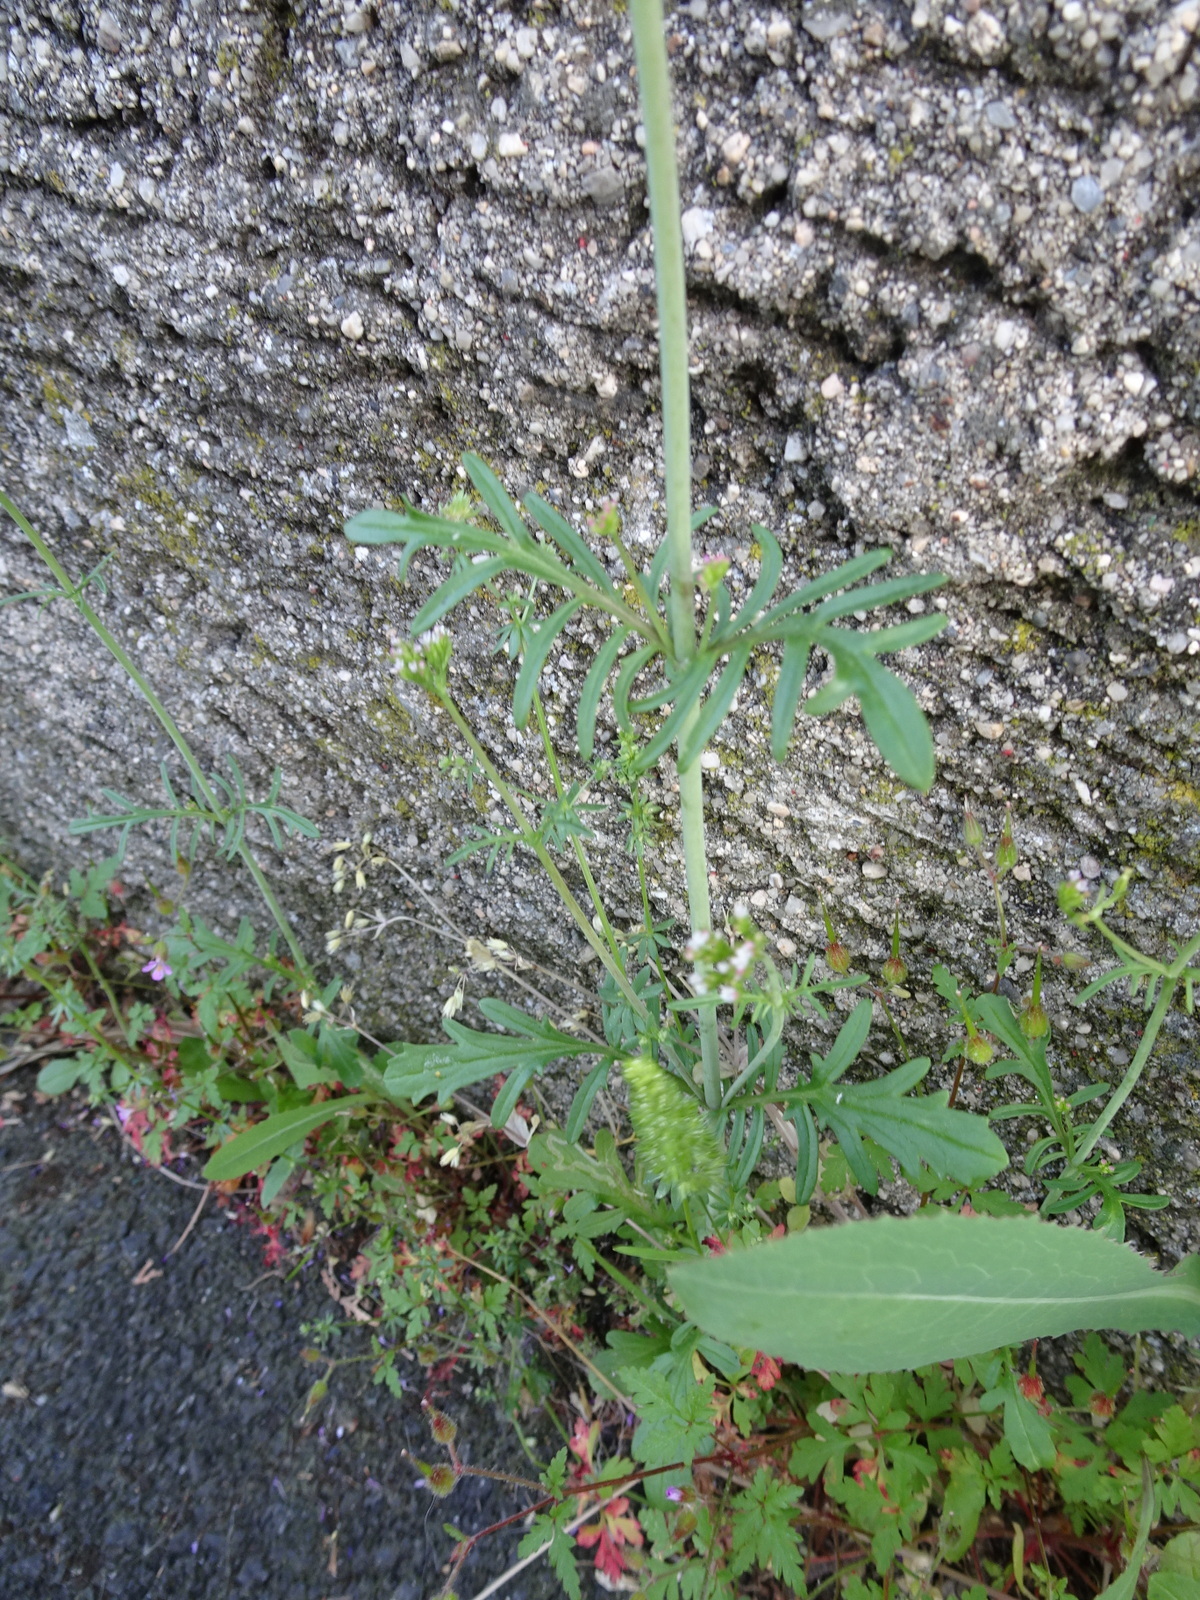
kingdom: Plantae
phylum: Tracheophyta
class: Magnoliopsida
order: Dipsacales
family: Caprifoliaceae
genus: Centranthus
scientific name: Centranthus calcitrapae
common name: Annual valerian
